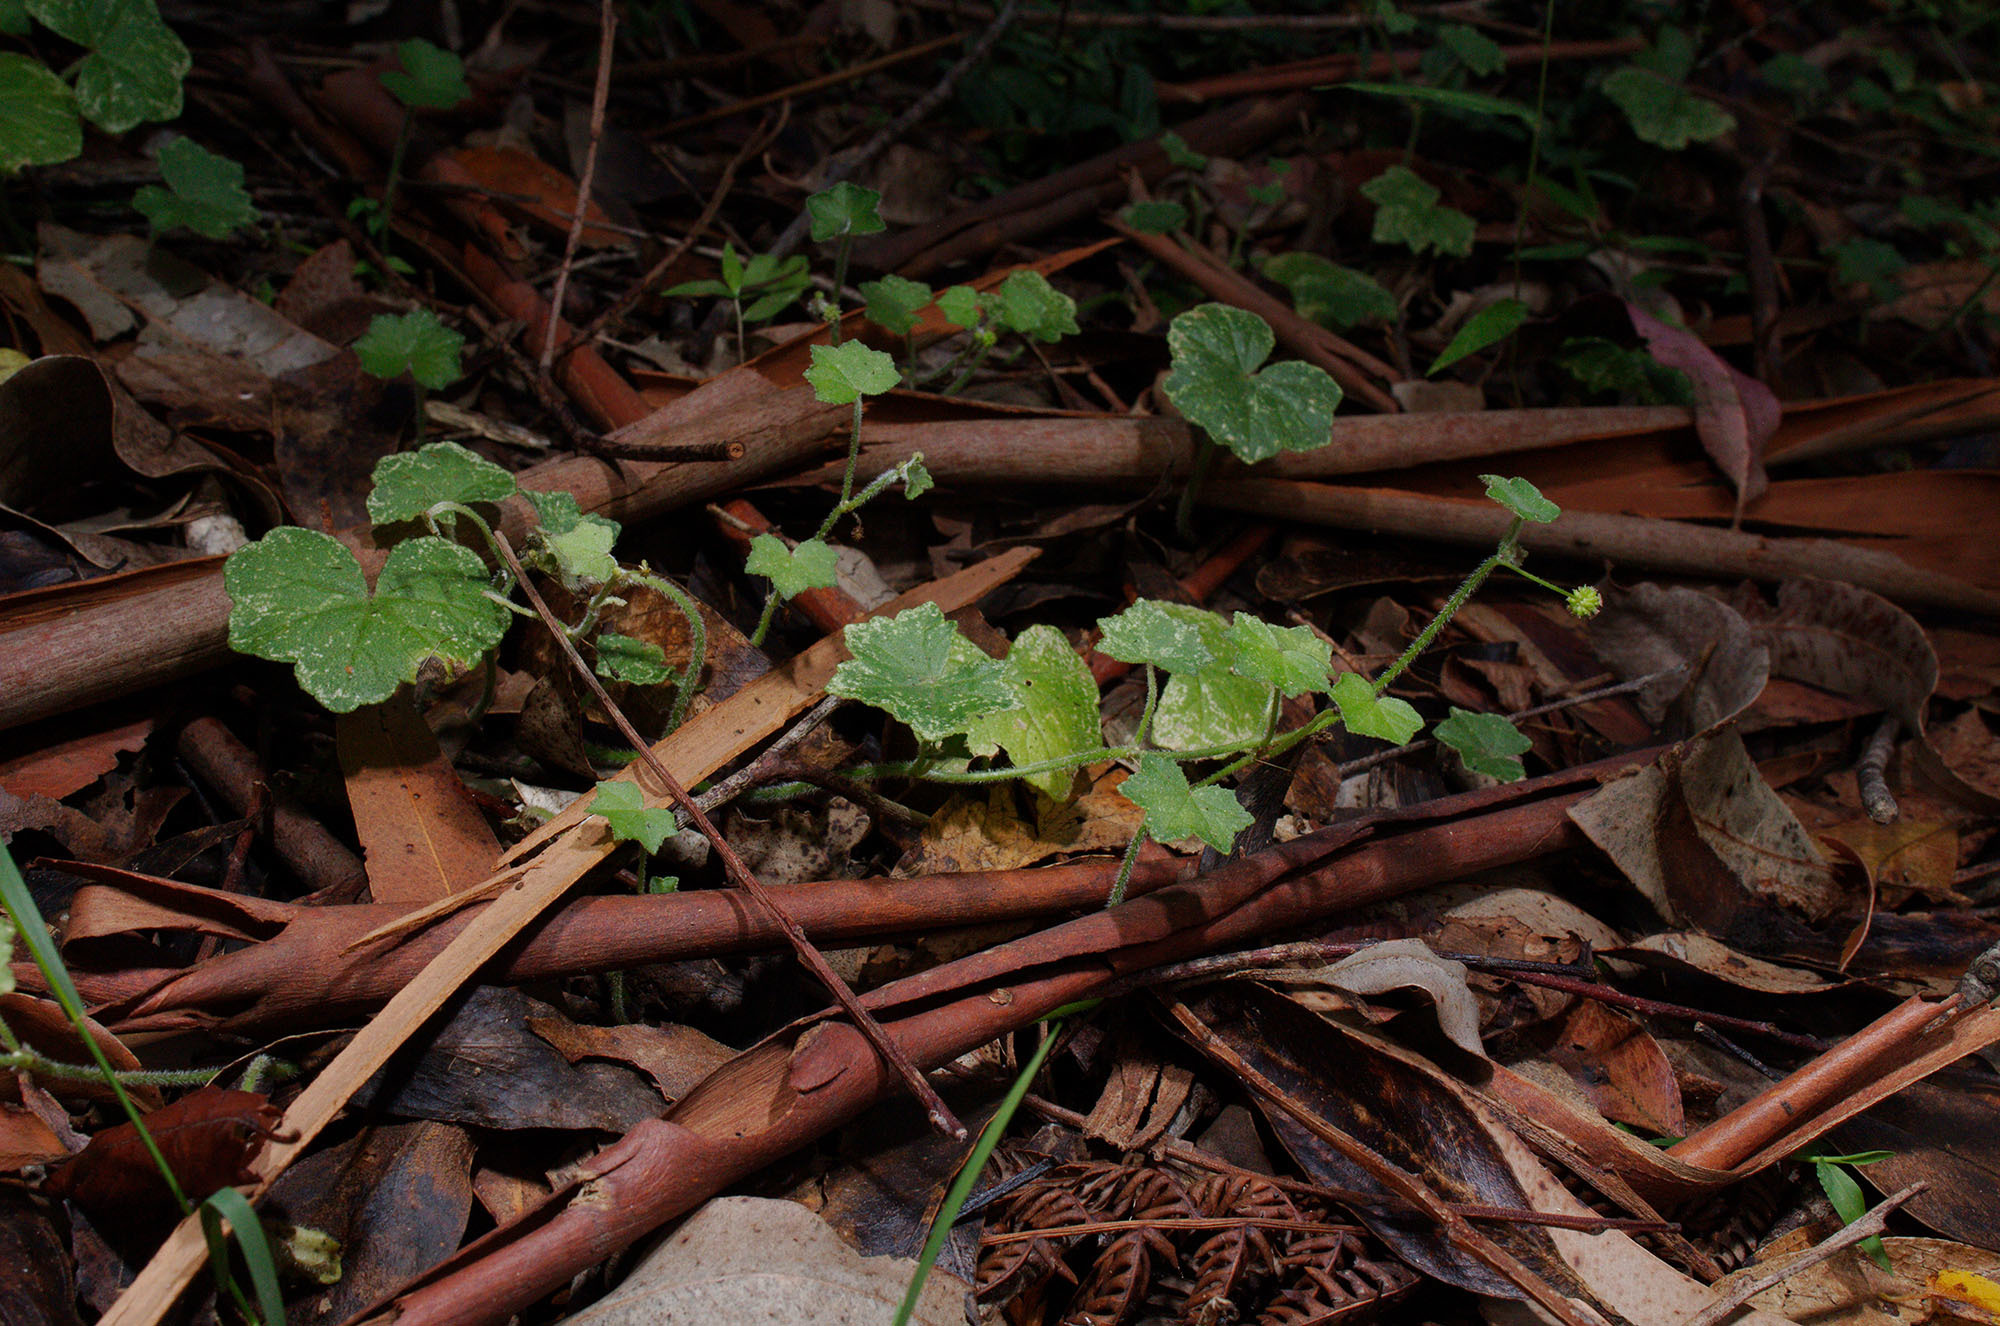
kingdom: Plantae
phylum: Tracheophyta
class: Magnoliopsida
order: Apiales
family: Araliaceae
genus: Hydrocotyle
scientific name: Hydrocotyle bowlesioides
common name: Largeleaf marshpennywort
